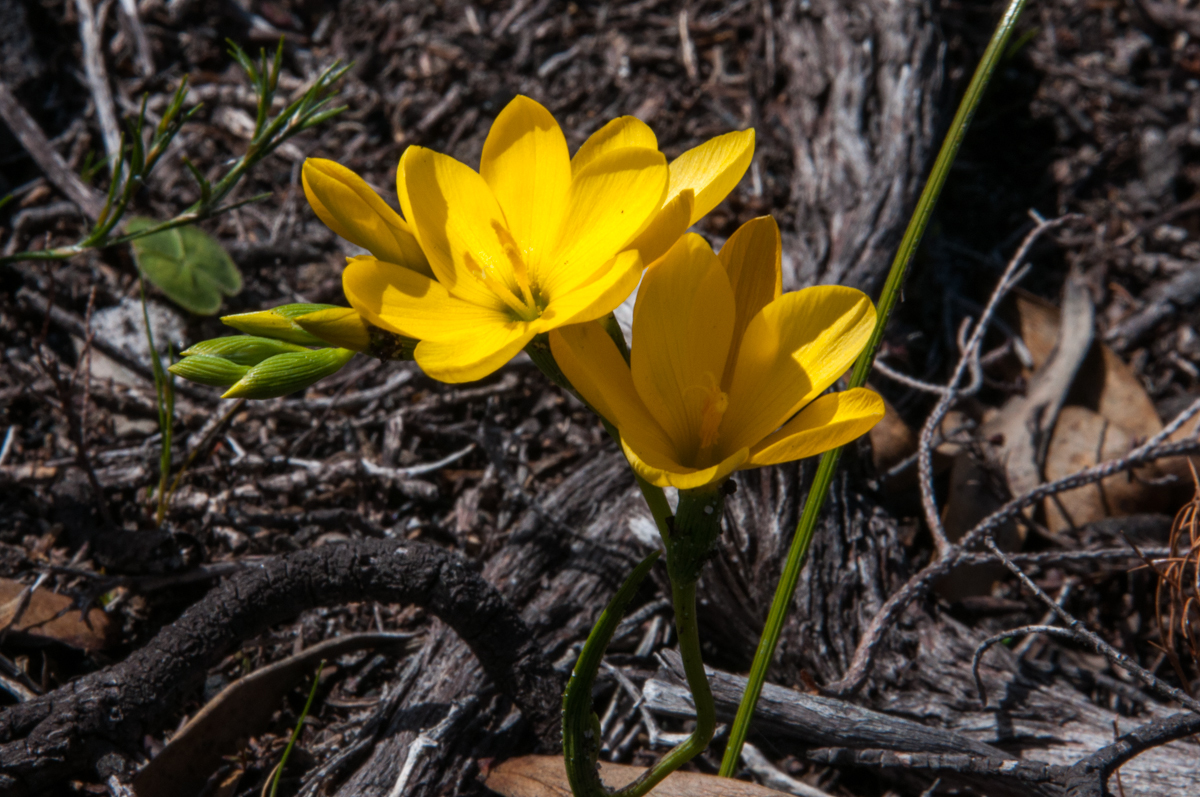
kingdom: Plantae
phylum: Tracheophyta
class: Liliopsida
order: Asparagales
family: Iridaceae
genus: Geissorhiza
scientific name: Geissorhiza humilis
